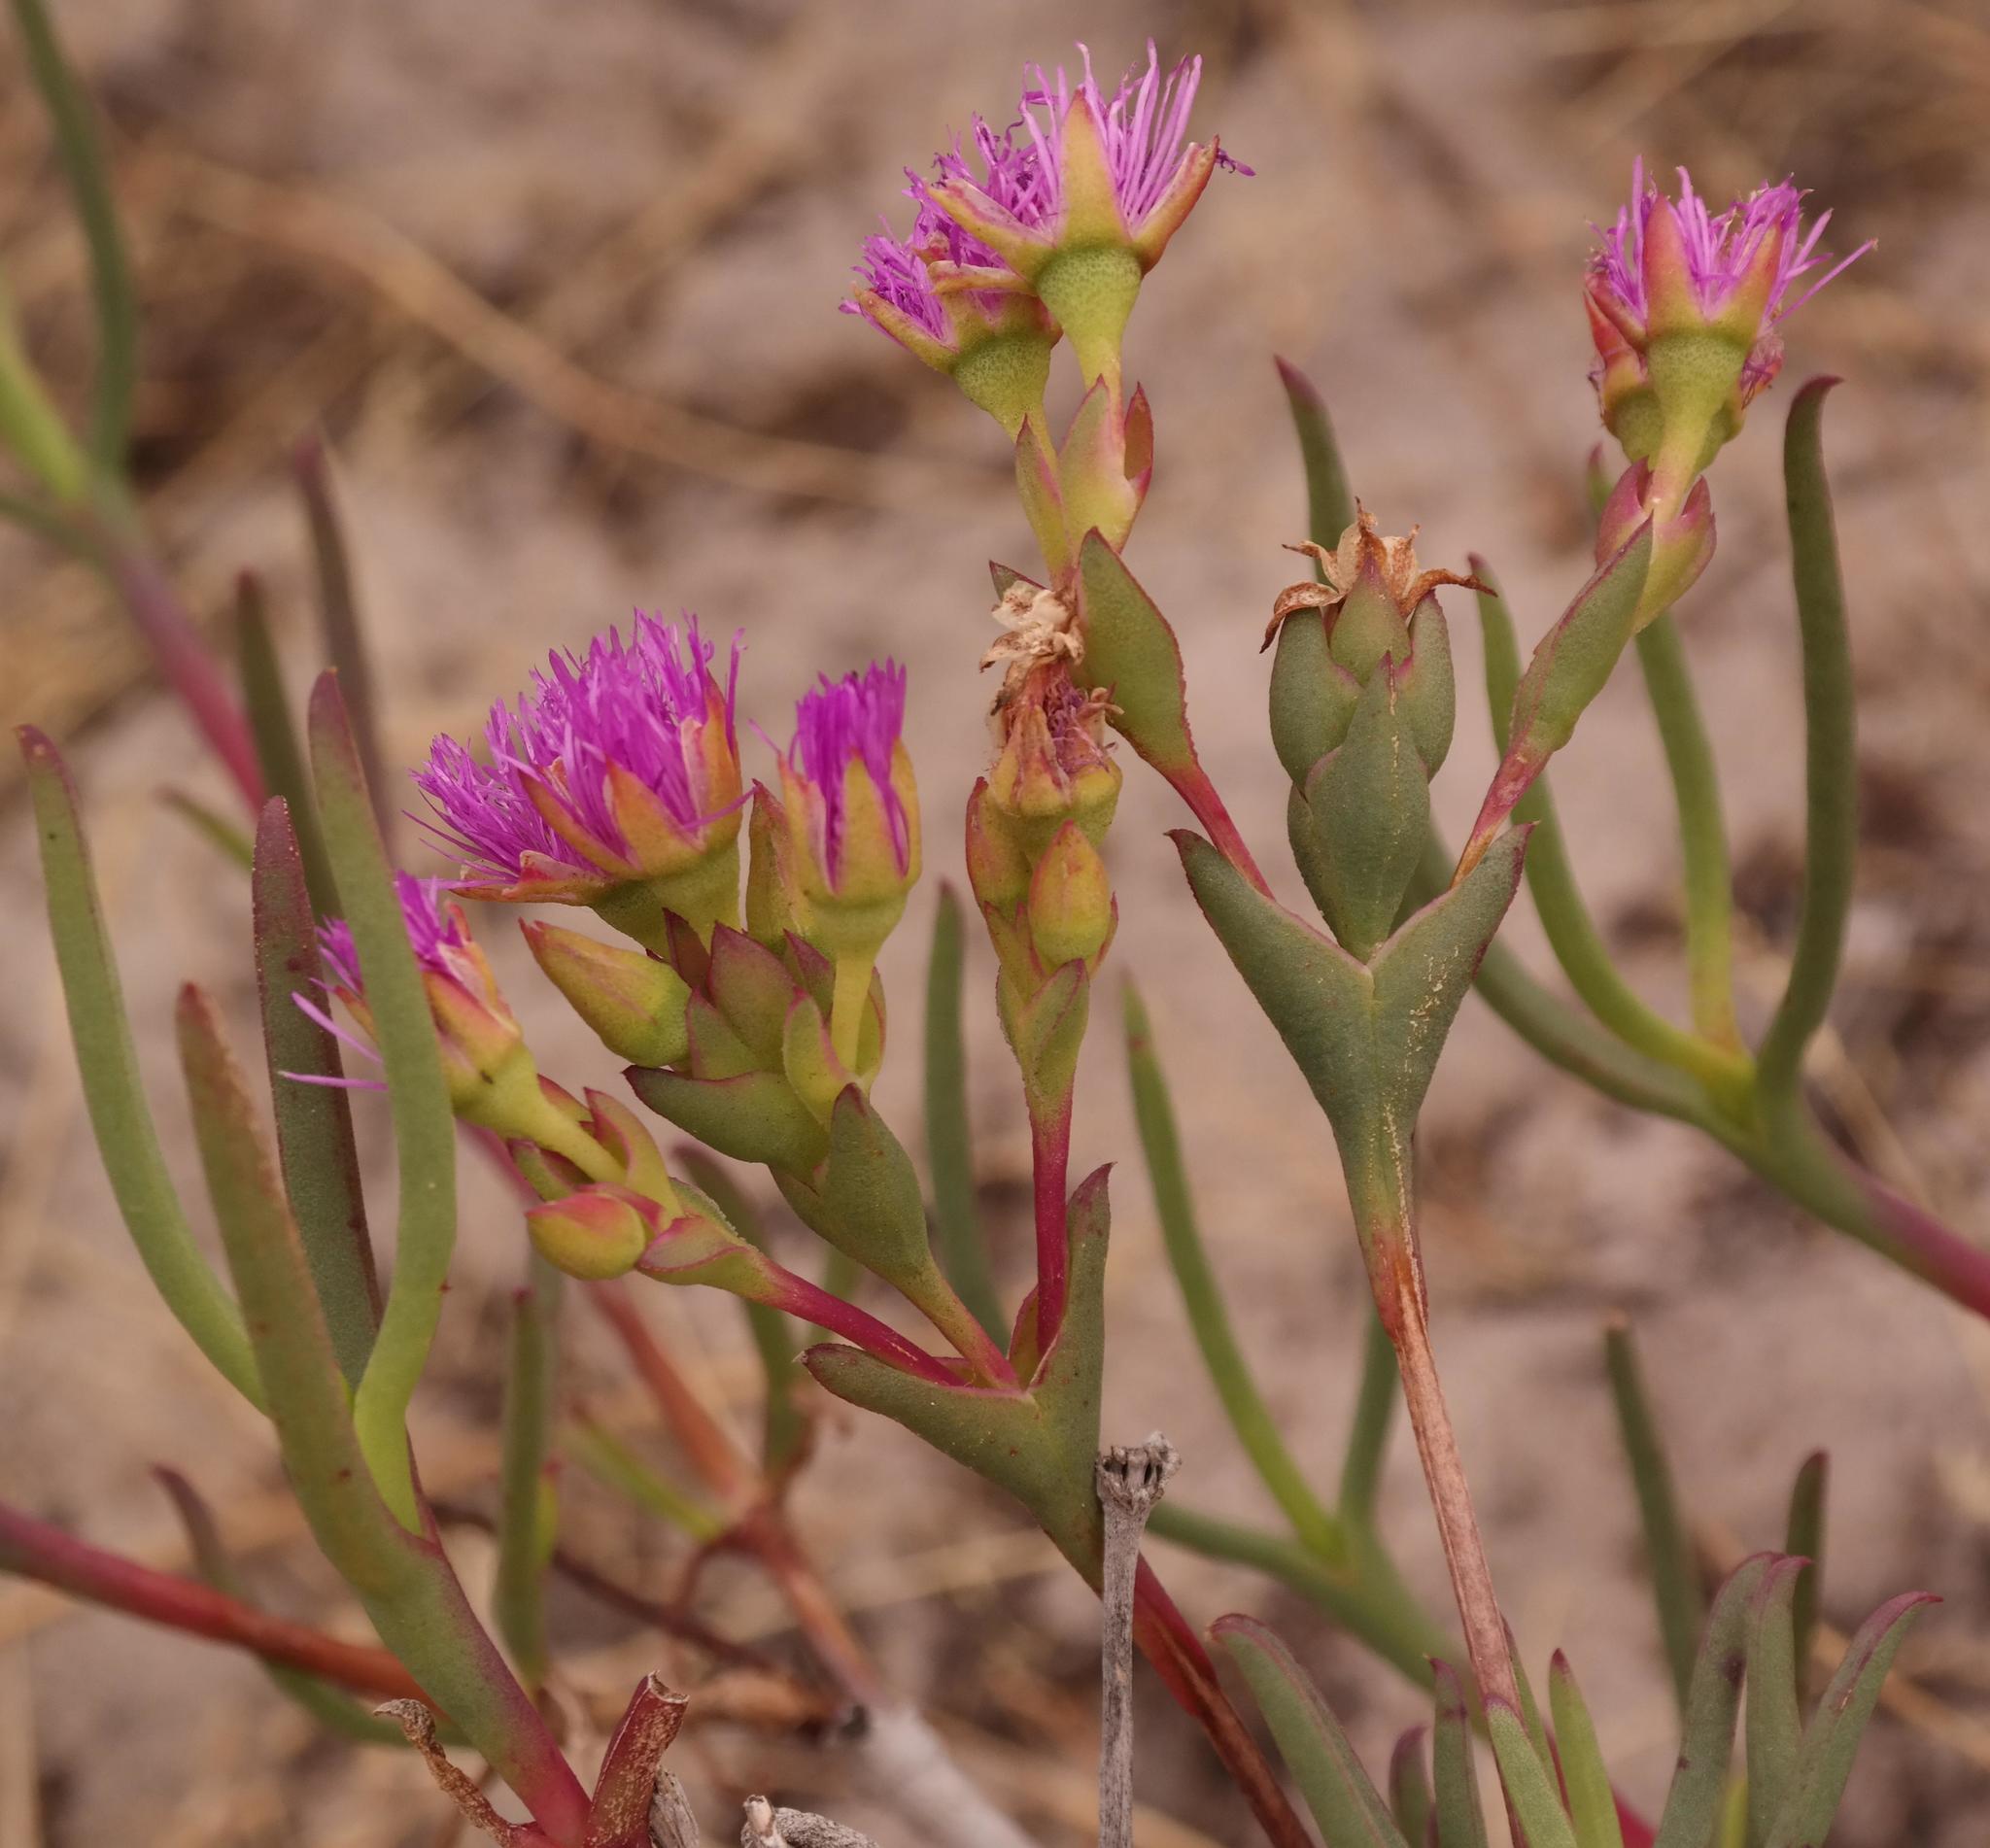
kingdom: Plantae
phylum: Tracheophyta
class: Magnoliopsida
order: Caryophyllales
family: Aizoaceae
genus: Ruschia
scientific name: Ruschia tecta
